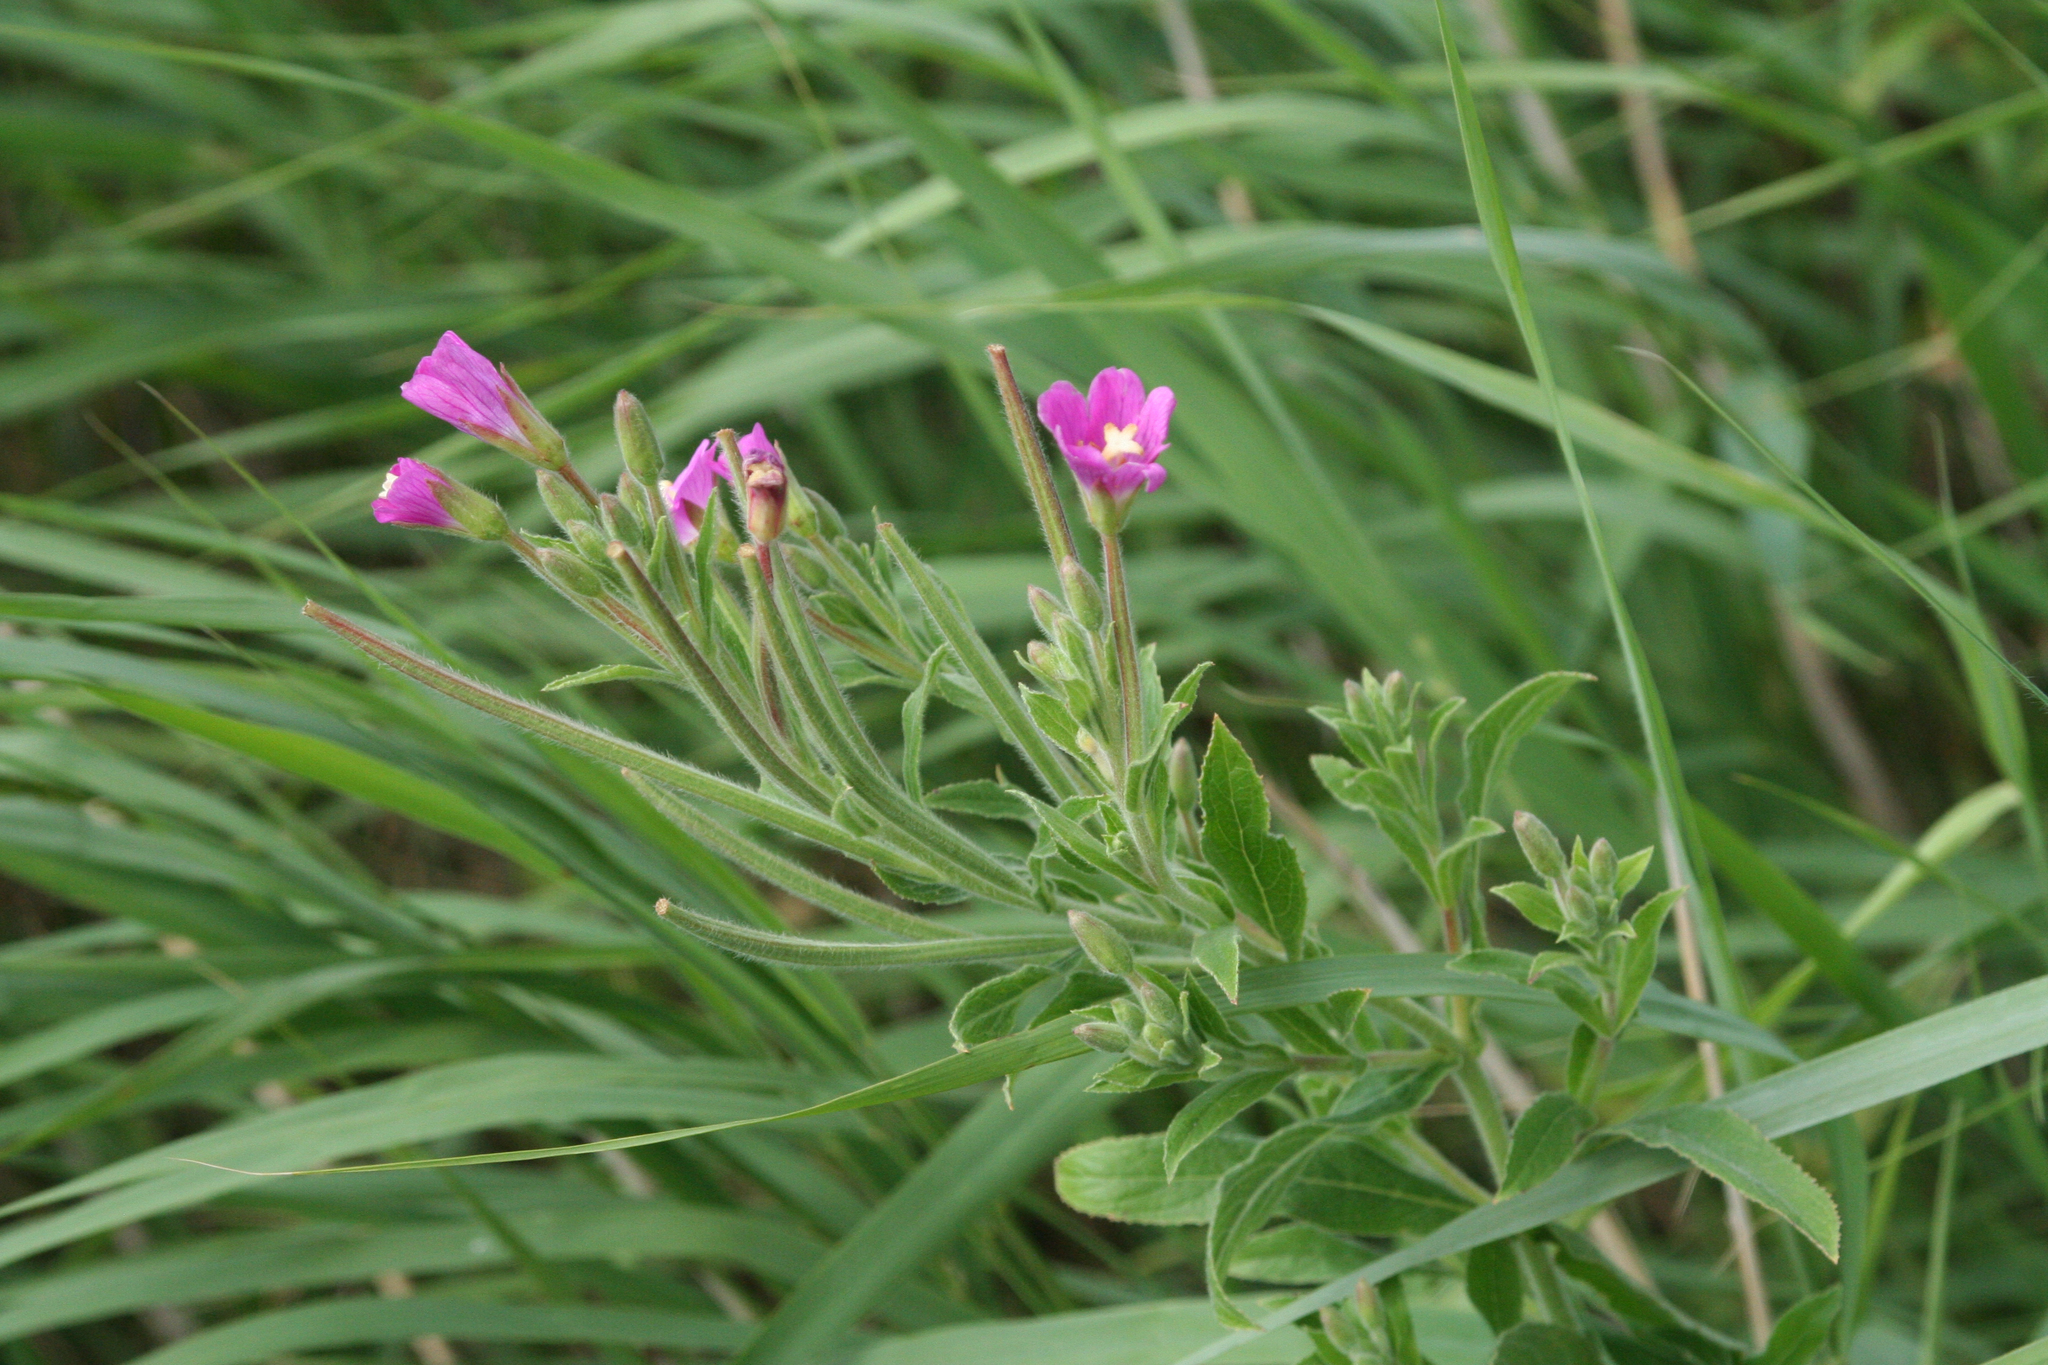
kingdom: Plantae
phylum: Tracheophyta
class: Magnoliopsida
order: Myrtales
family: Onagraceae
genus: Epilobium
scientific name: Epilobium hirsutum
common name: Great willowherb
